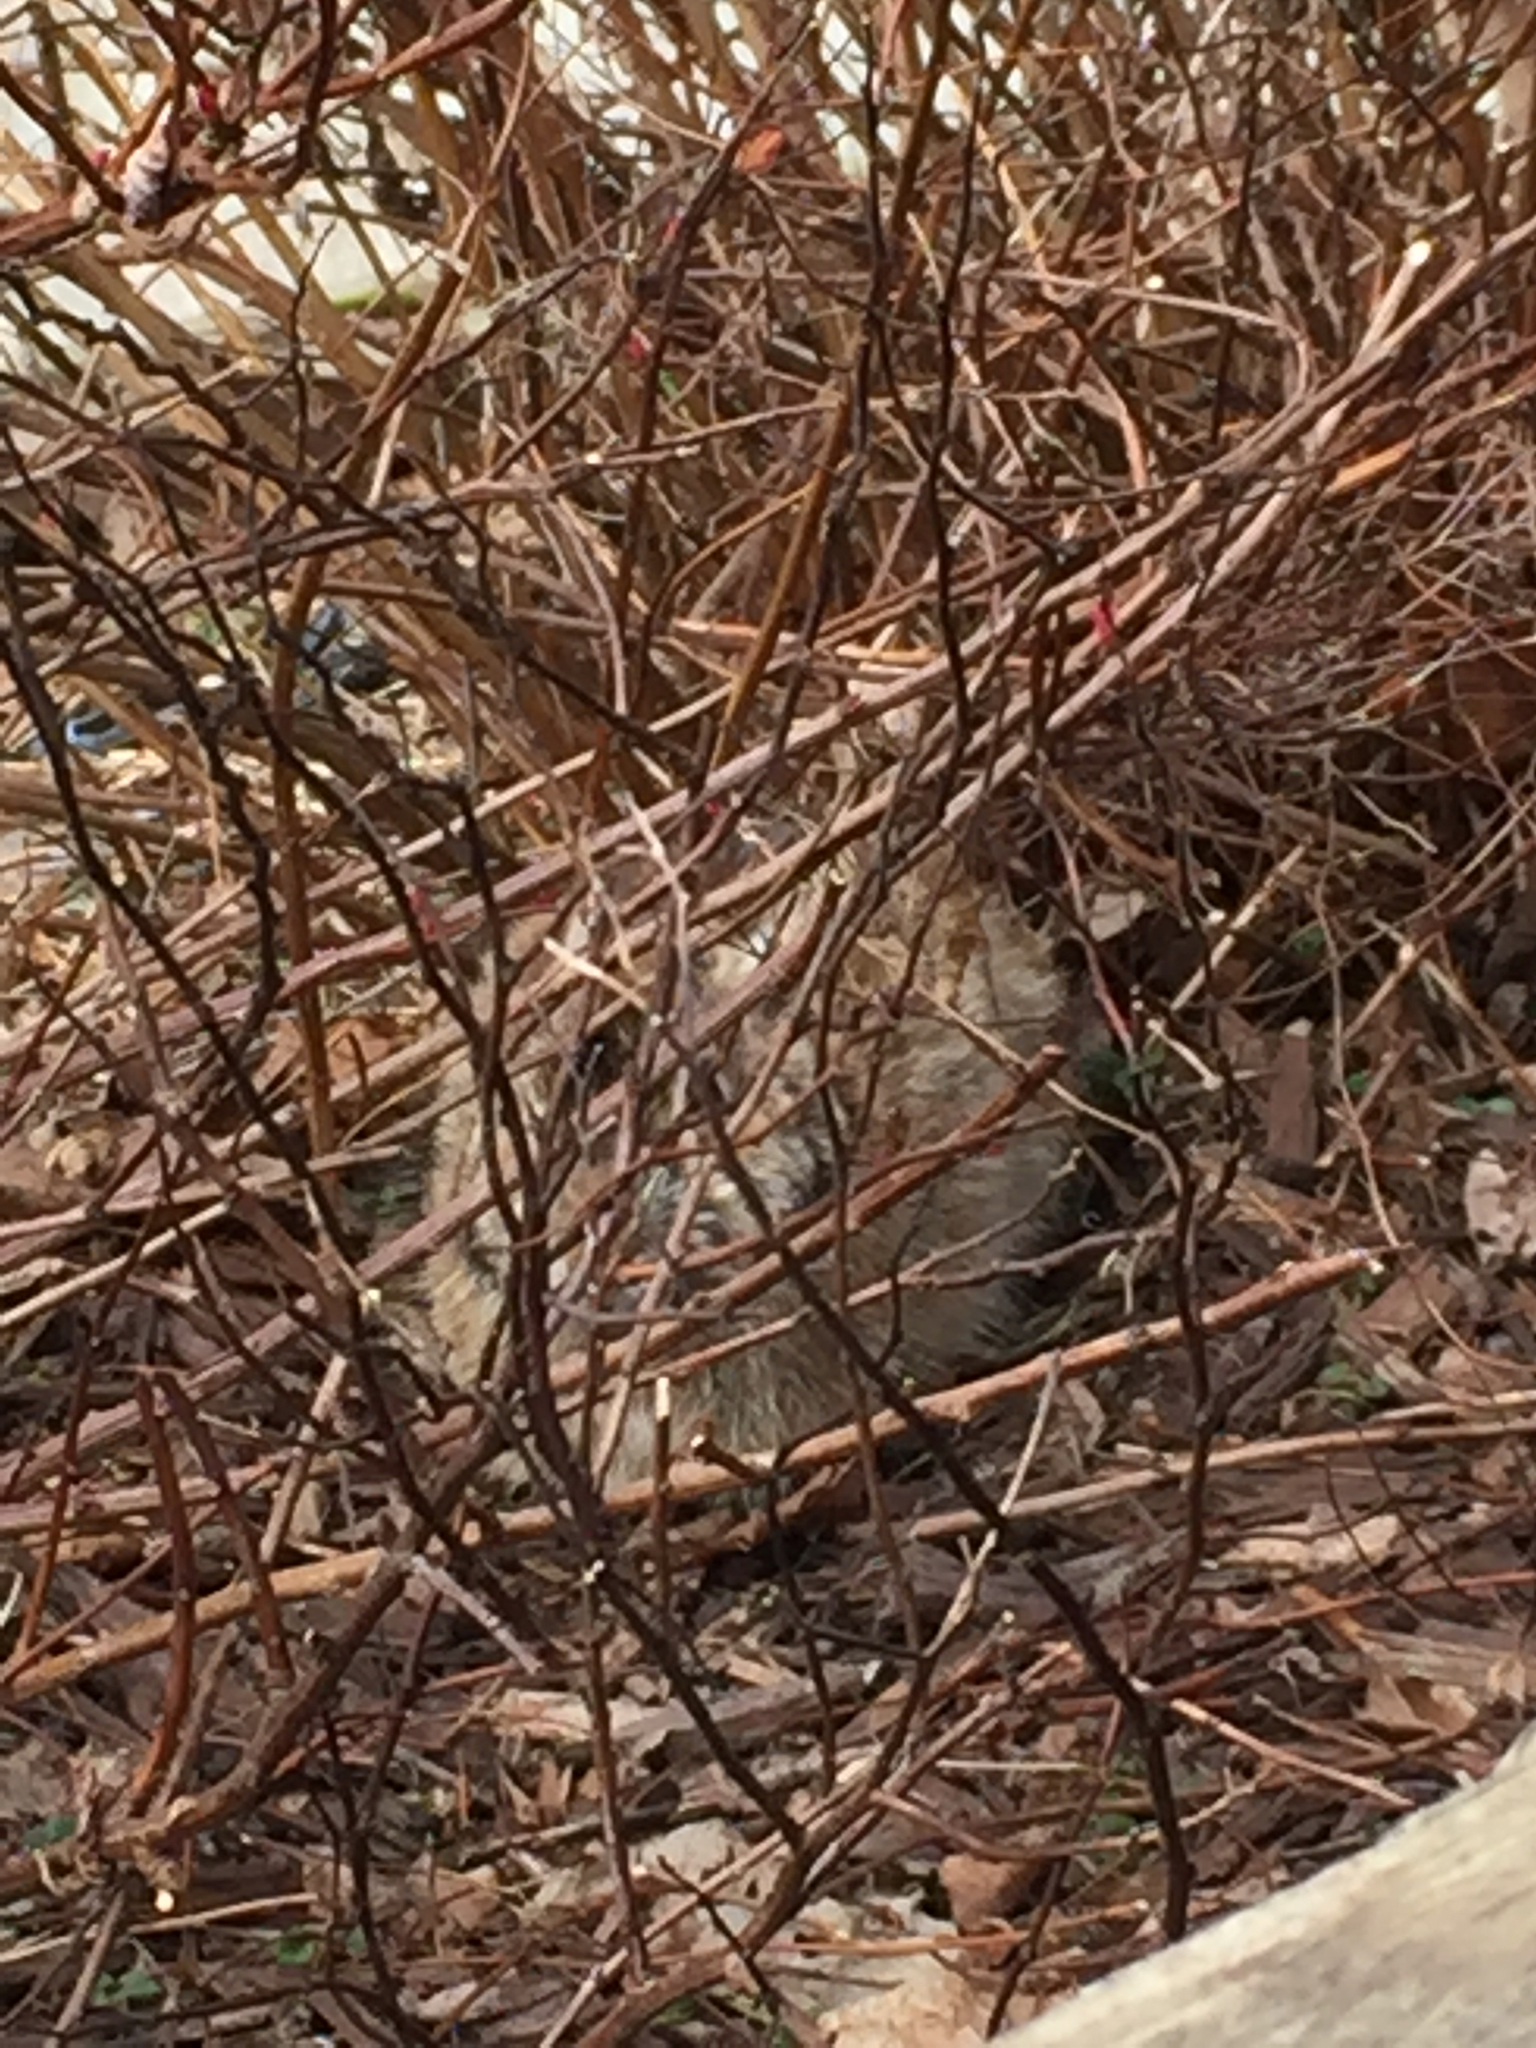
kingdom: Animalia
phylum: Chordata
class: Mammalia
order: Lagomorpha
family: Leporidae
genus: Sylvilagus
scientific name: Sylvilagus floridanus
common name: Eastern cottontail
